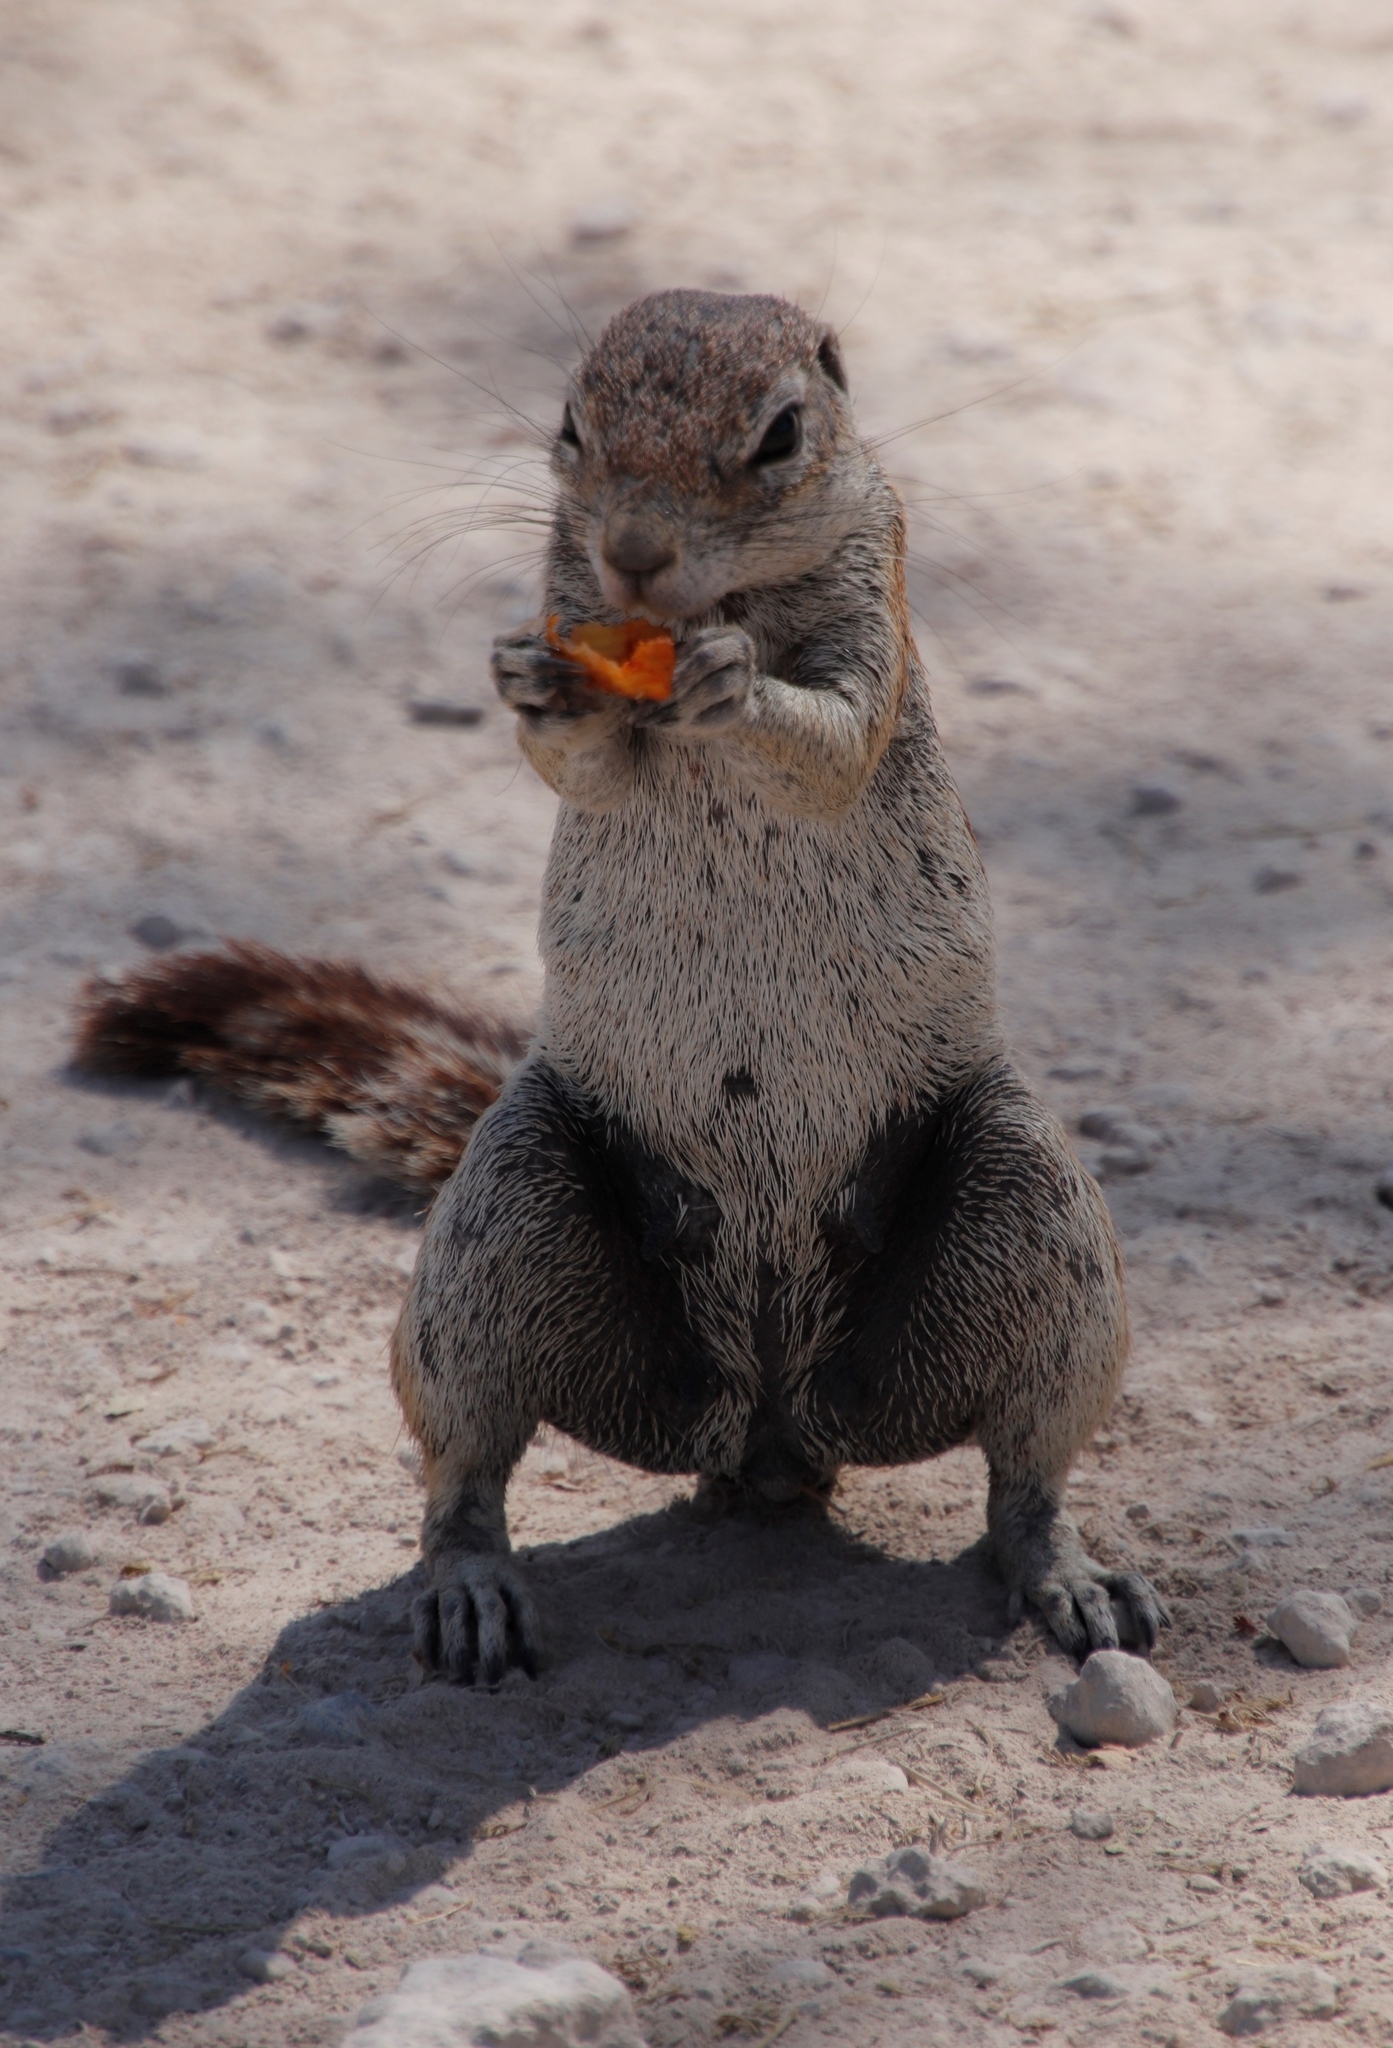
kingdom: Animalia
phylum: Chordata
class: Mammalia
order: Rodentia
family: Sciuridae
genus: Xerus
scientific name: Xerus inauris
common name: South african ground squirrel
